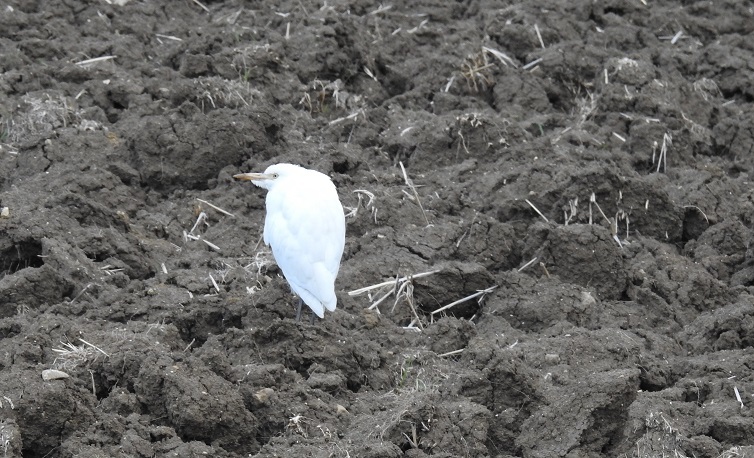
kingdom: Animalia
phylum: Chordata
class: Aves
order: Pelecaniformes
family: Ardeidae
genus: Bubulcus
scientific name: Bubulcus ibis
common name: Cattle egret
